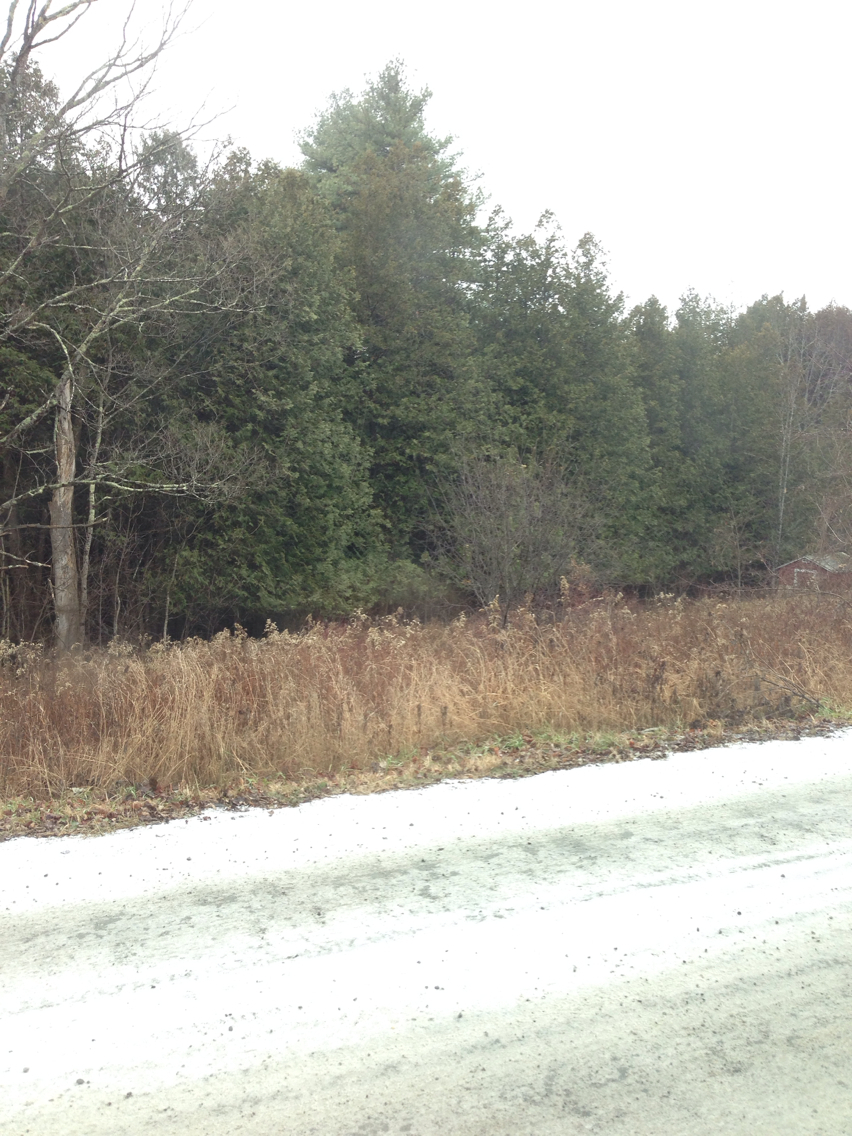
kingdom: Plantae
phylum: Tracheophyta
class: Pinopsida
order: Pinales
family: Cupressaceae
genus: Thuja
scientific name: Thuja occidentalis
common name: Northern white-cedar
